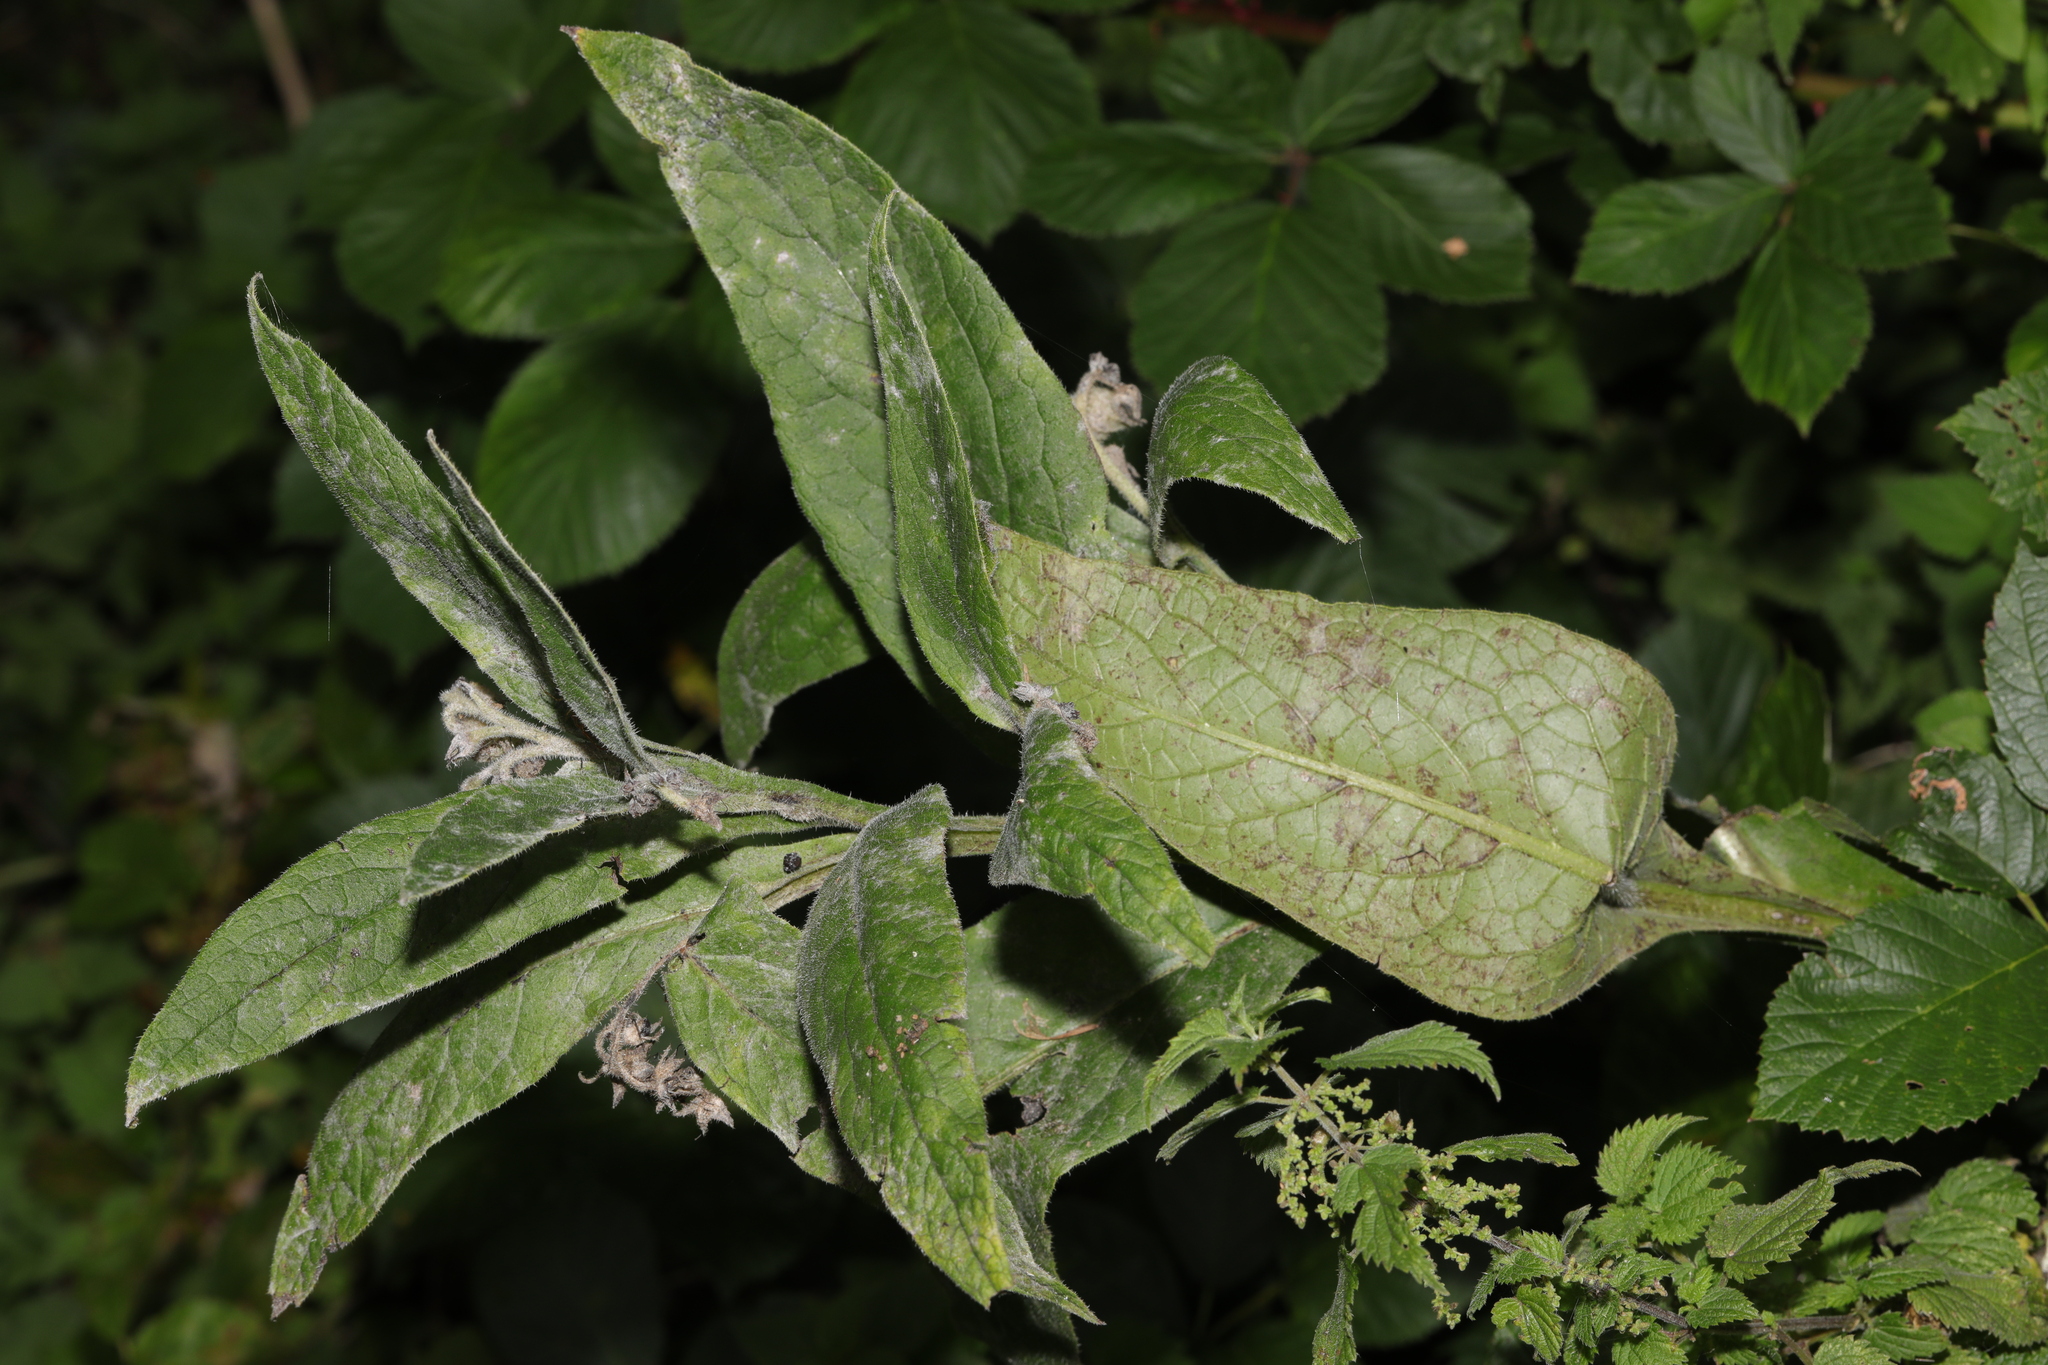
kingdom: Fungi
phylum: Ascomycota
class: Leotiomycetes
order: Helotiales
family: Erysiphaceae
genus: Golovinomyces
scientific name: Golovinomyces asperifoliorum
